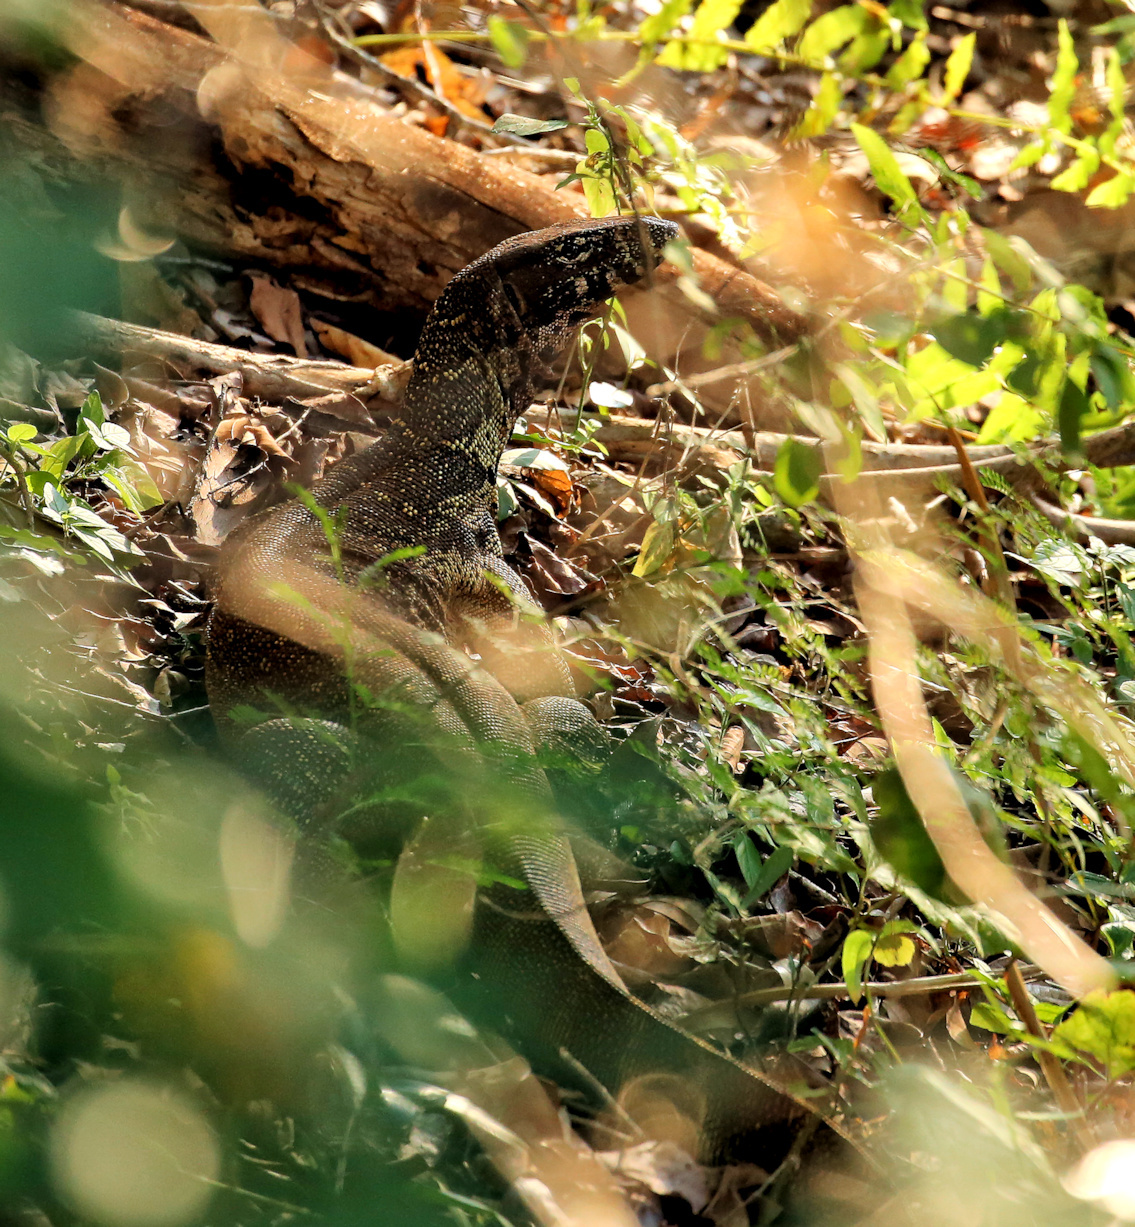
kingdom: Animalia
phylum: Chordata
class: Squamata
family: Varanidae
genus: Varanus
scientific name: Varanus niloticus
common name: Nile monitor
